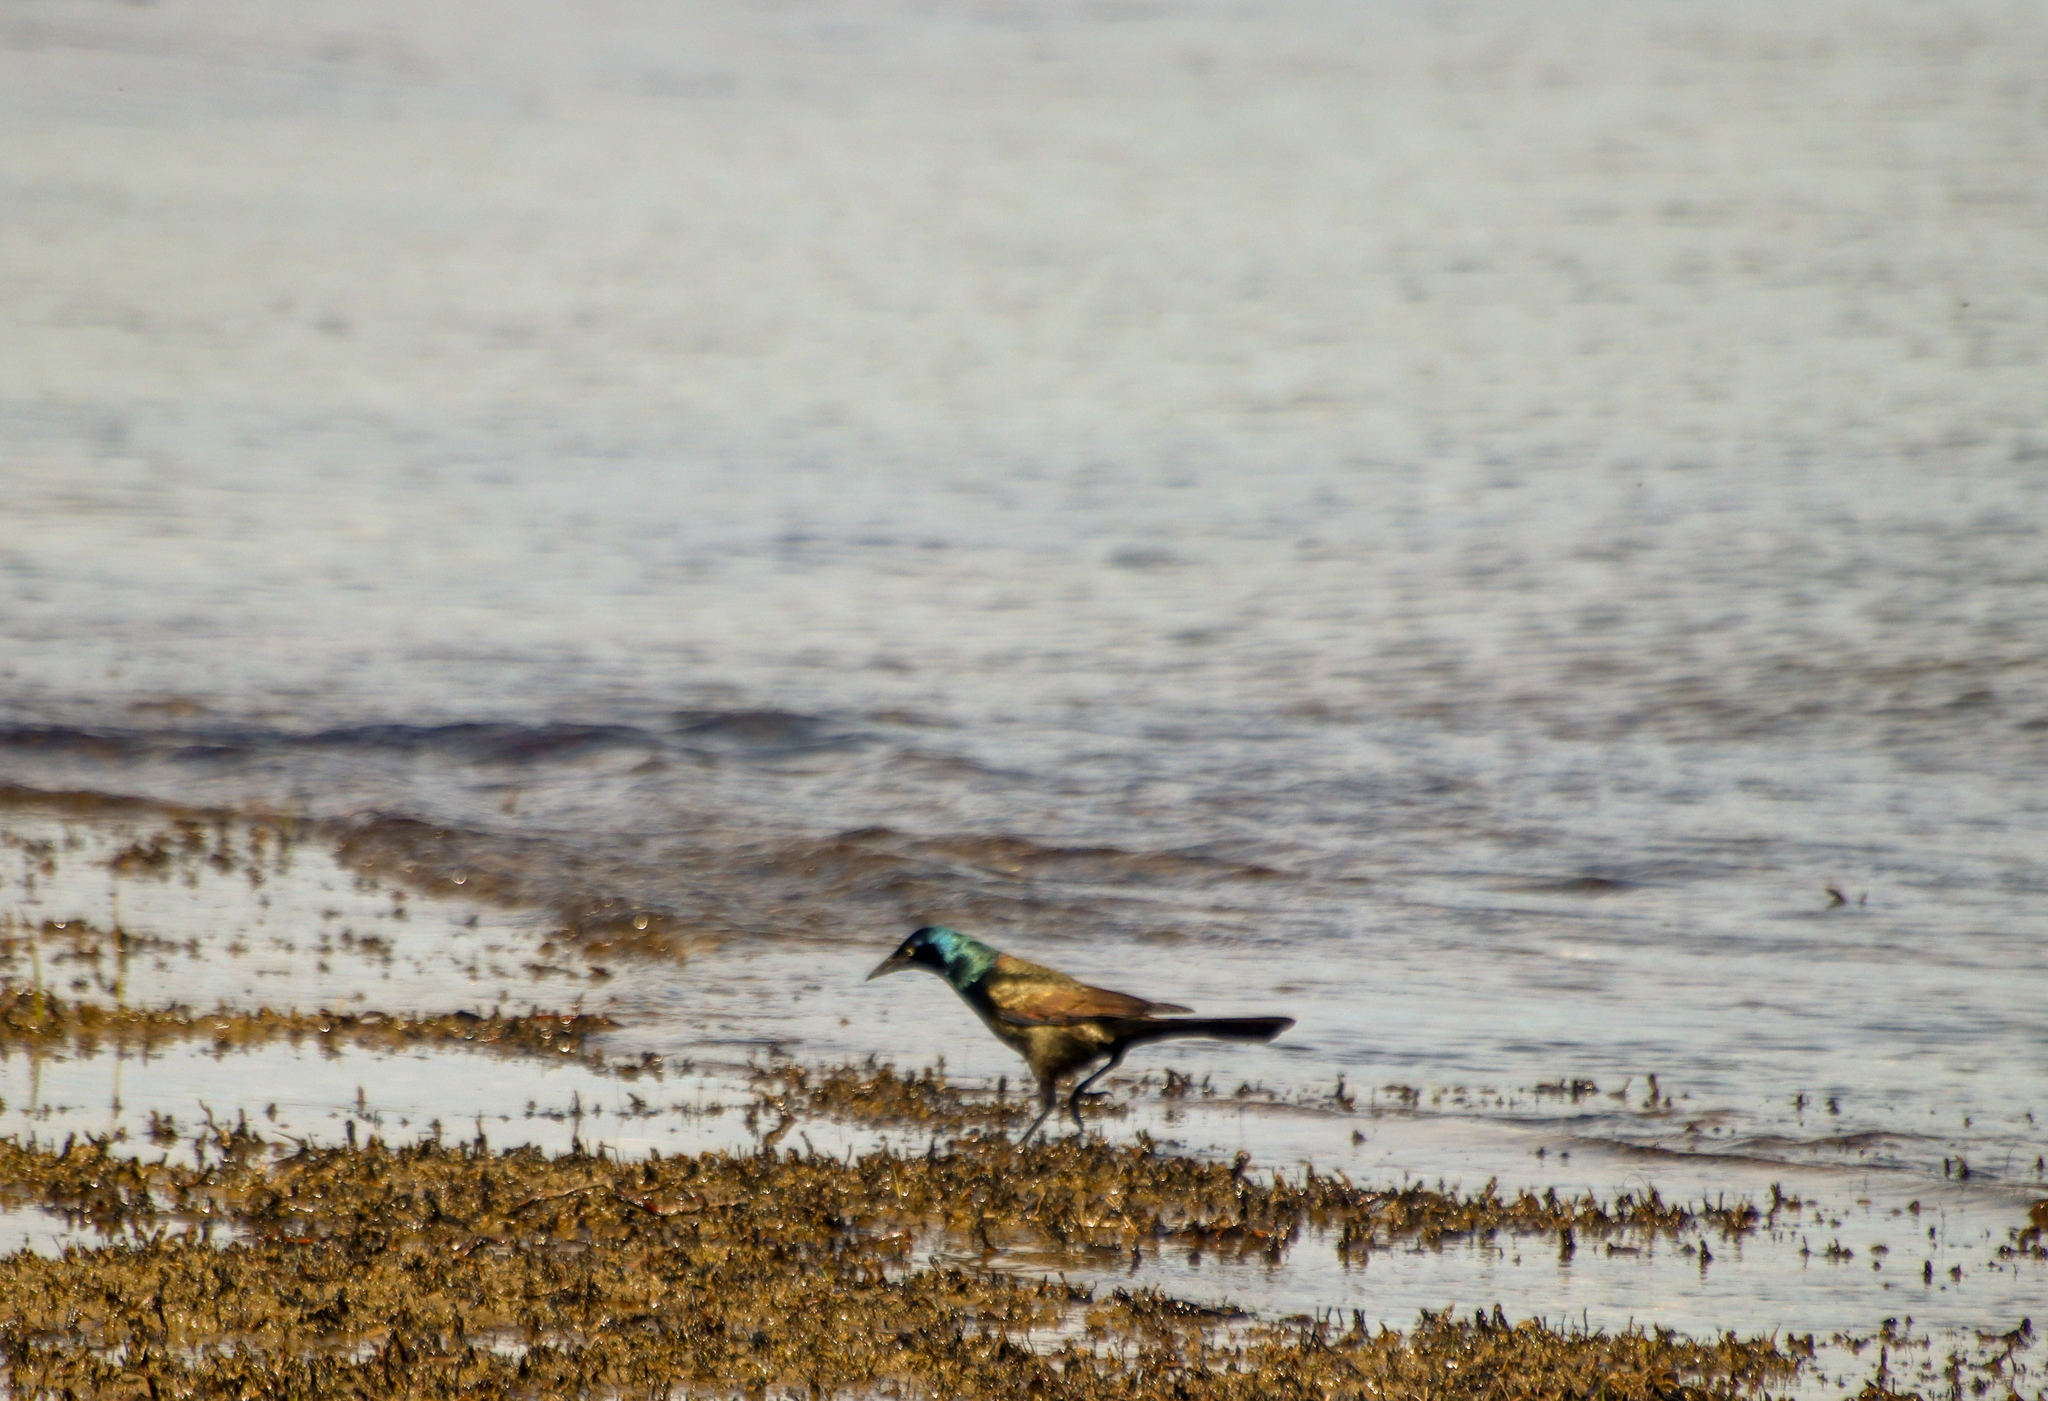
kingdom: Animalia
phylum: Chordata
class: Aves
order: Passeriformes
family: Icteridae
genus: Quiscalus
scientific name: Quiscalus quiscula
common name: Common grackle
